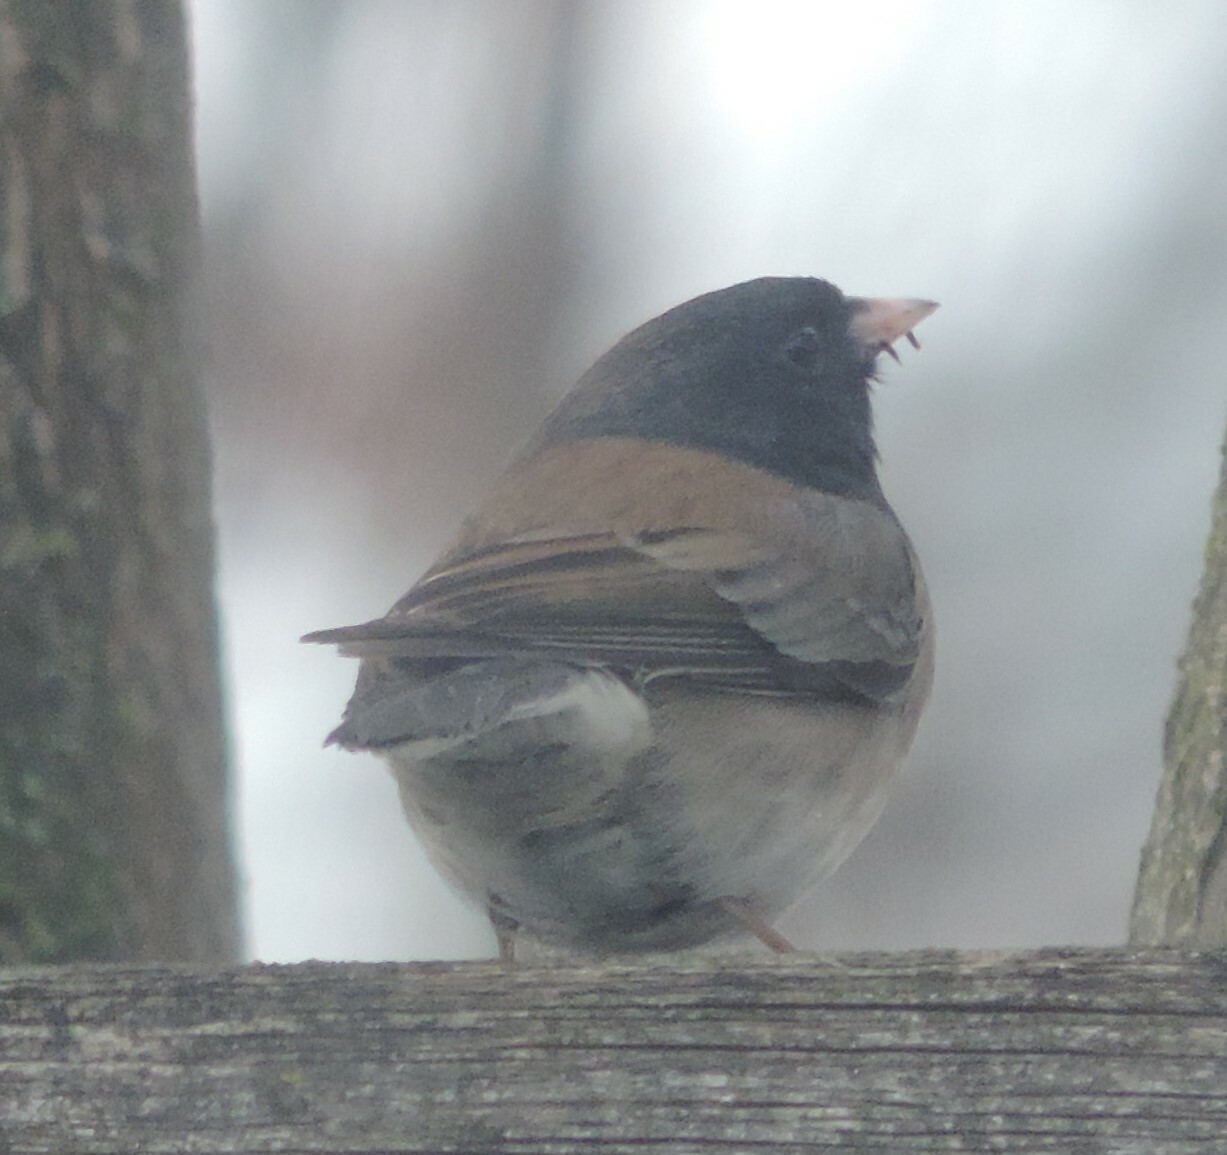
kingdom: Animalia
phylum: Chordata
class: Aves
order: Passeriformes
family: Passerellidae
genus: Junco
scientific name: Junco hyemalis
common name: Dark-eyed junco
